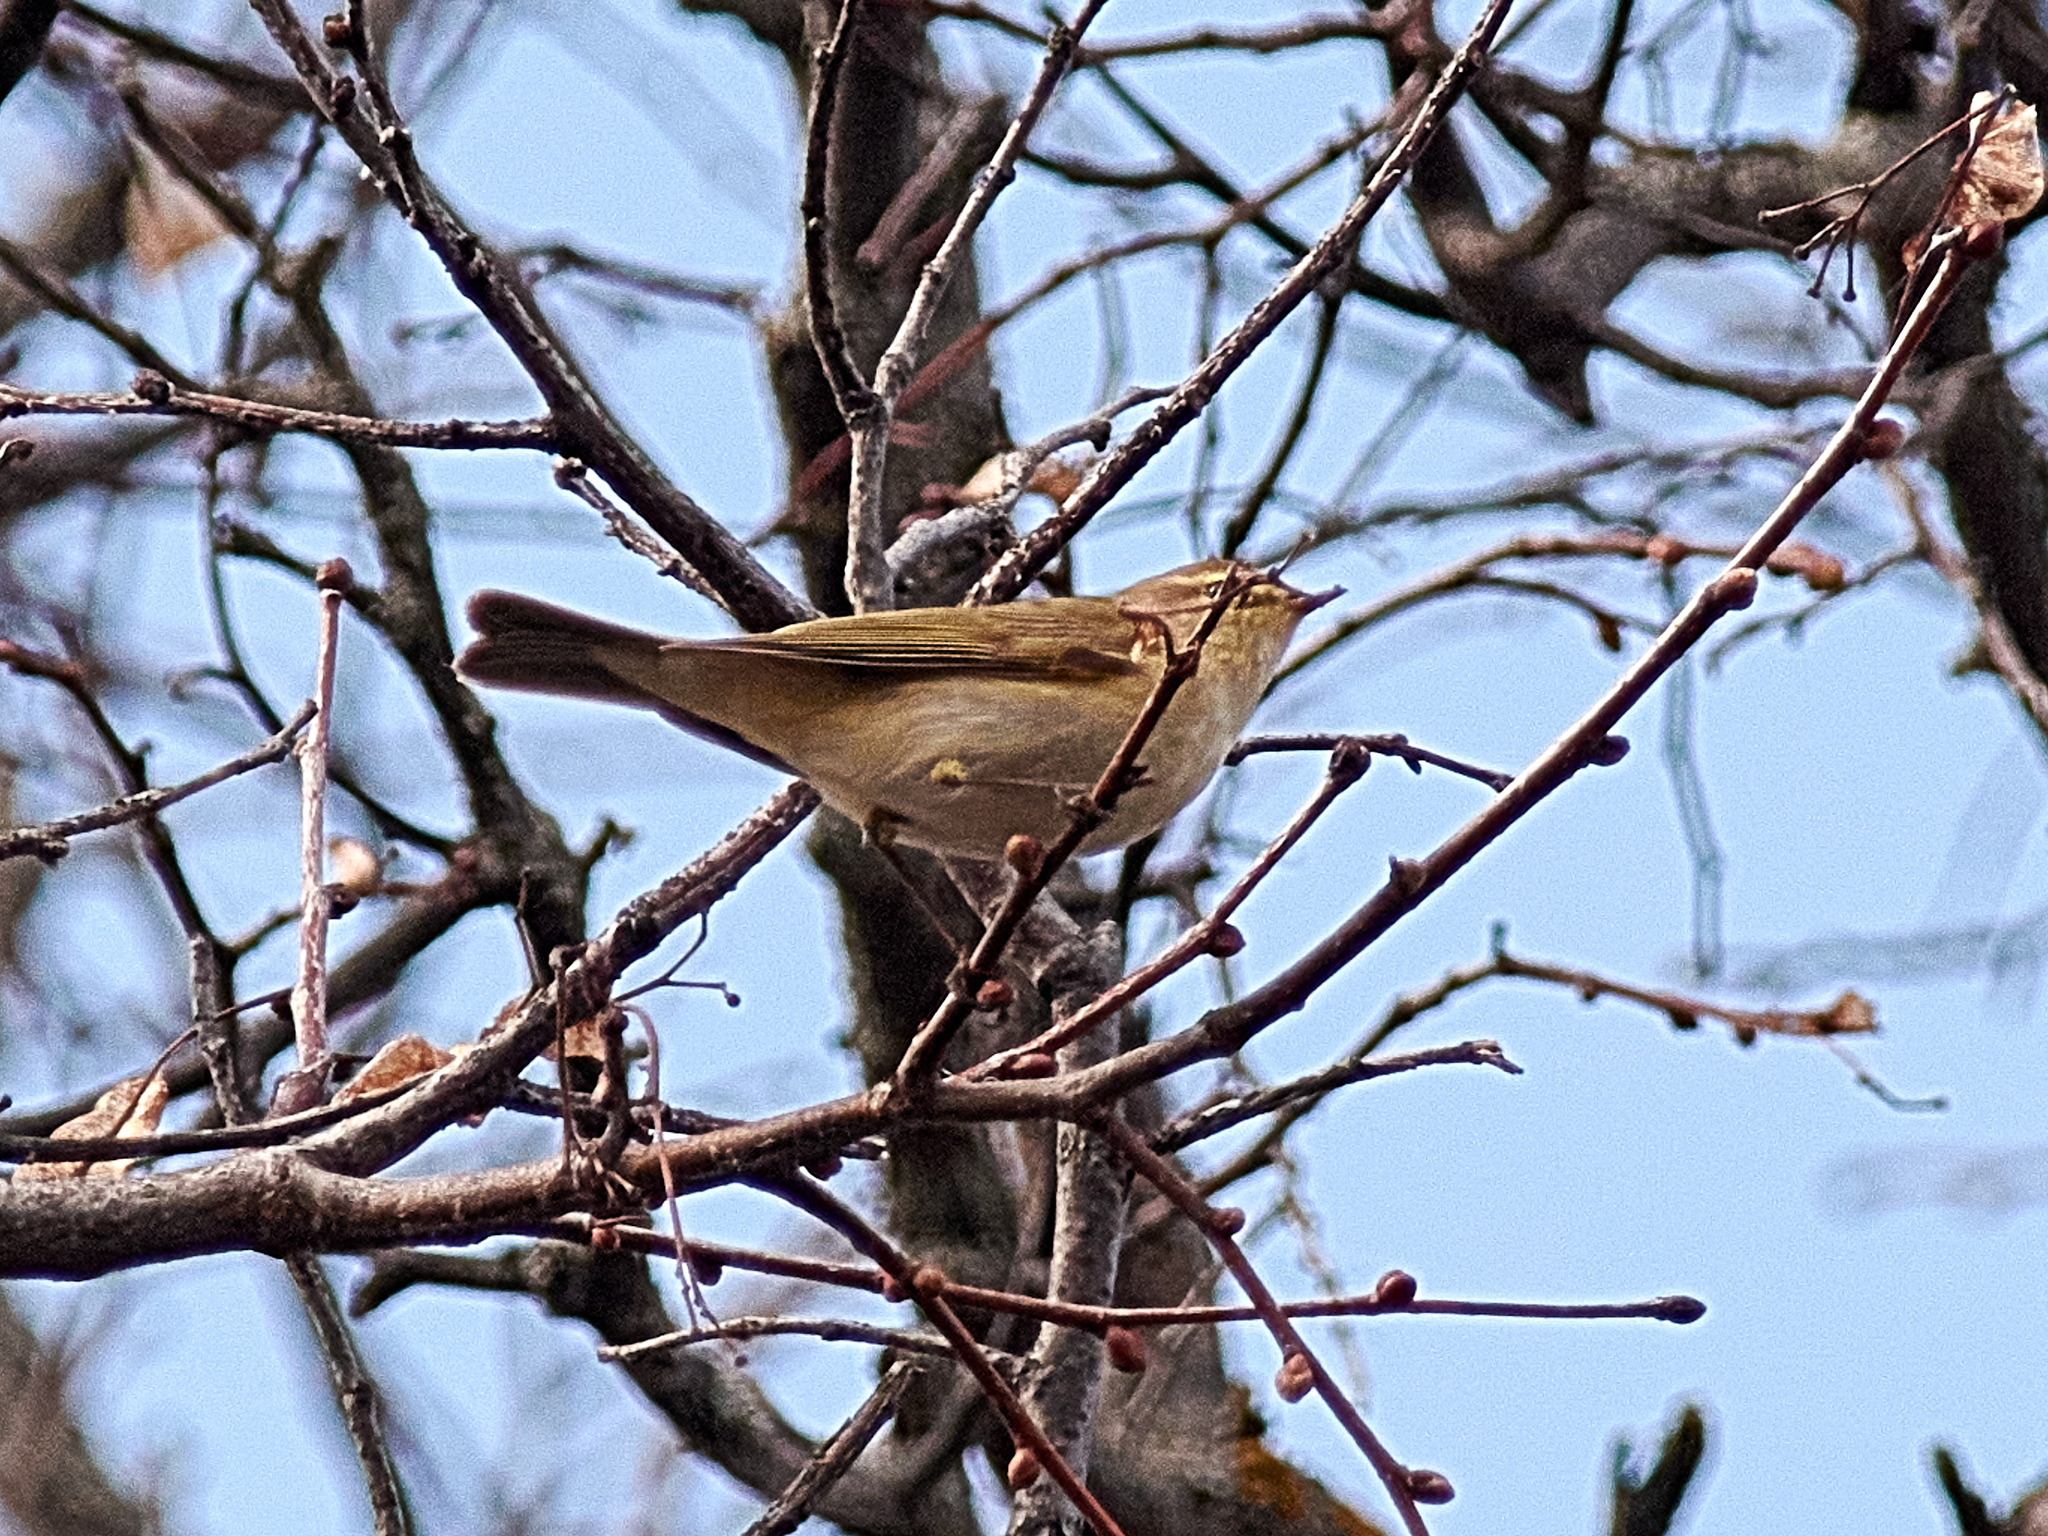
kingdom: Animalia
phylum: Chordata
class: Aves
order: Passeriformes
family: Phylloscopidae
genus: Phylloscopus
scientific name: Phylloscopus collybita
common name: Common chiffchaff
